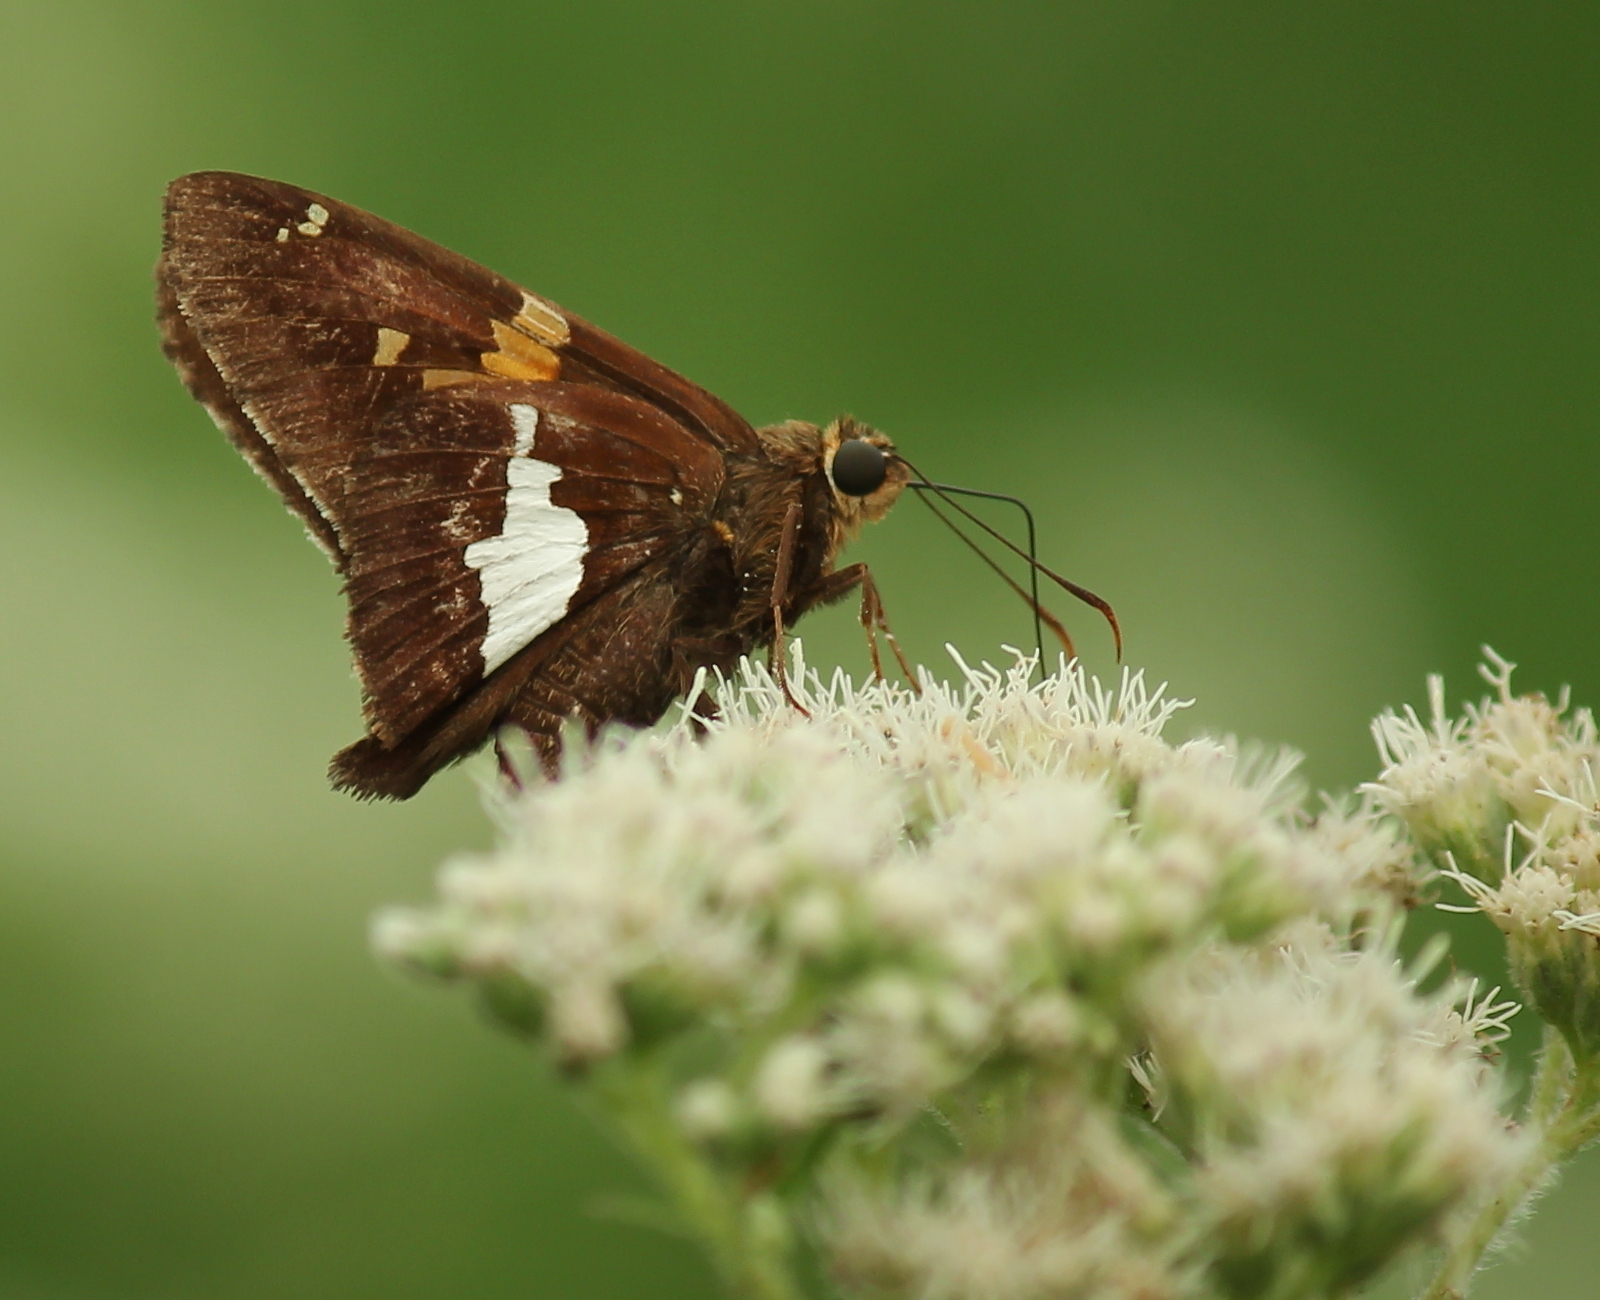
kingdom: Animalia
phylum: Arthropoda
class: Insecta
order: Lepidoptera
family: Hesperiidae
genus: Epargyreus
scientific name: Epargyreus clarus
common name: Silver-spotted skipper
